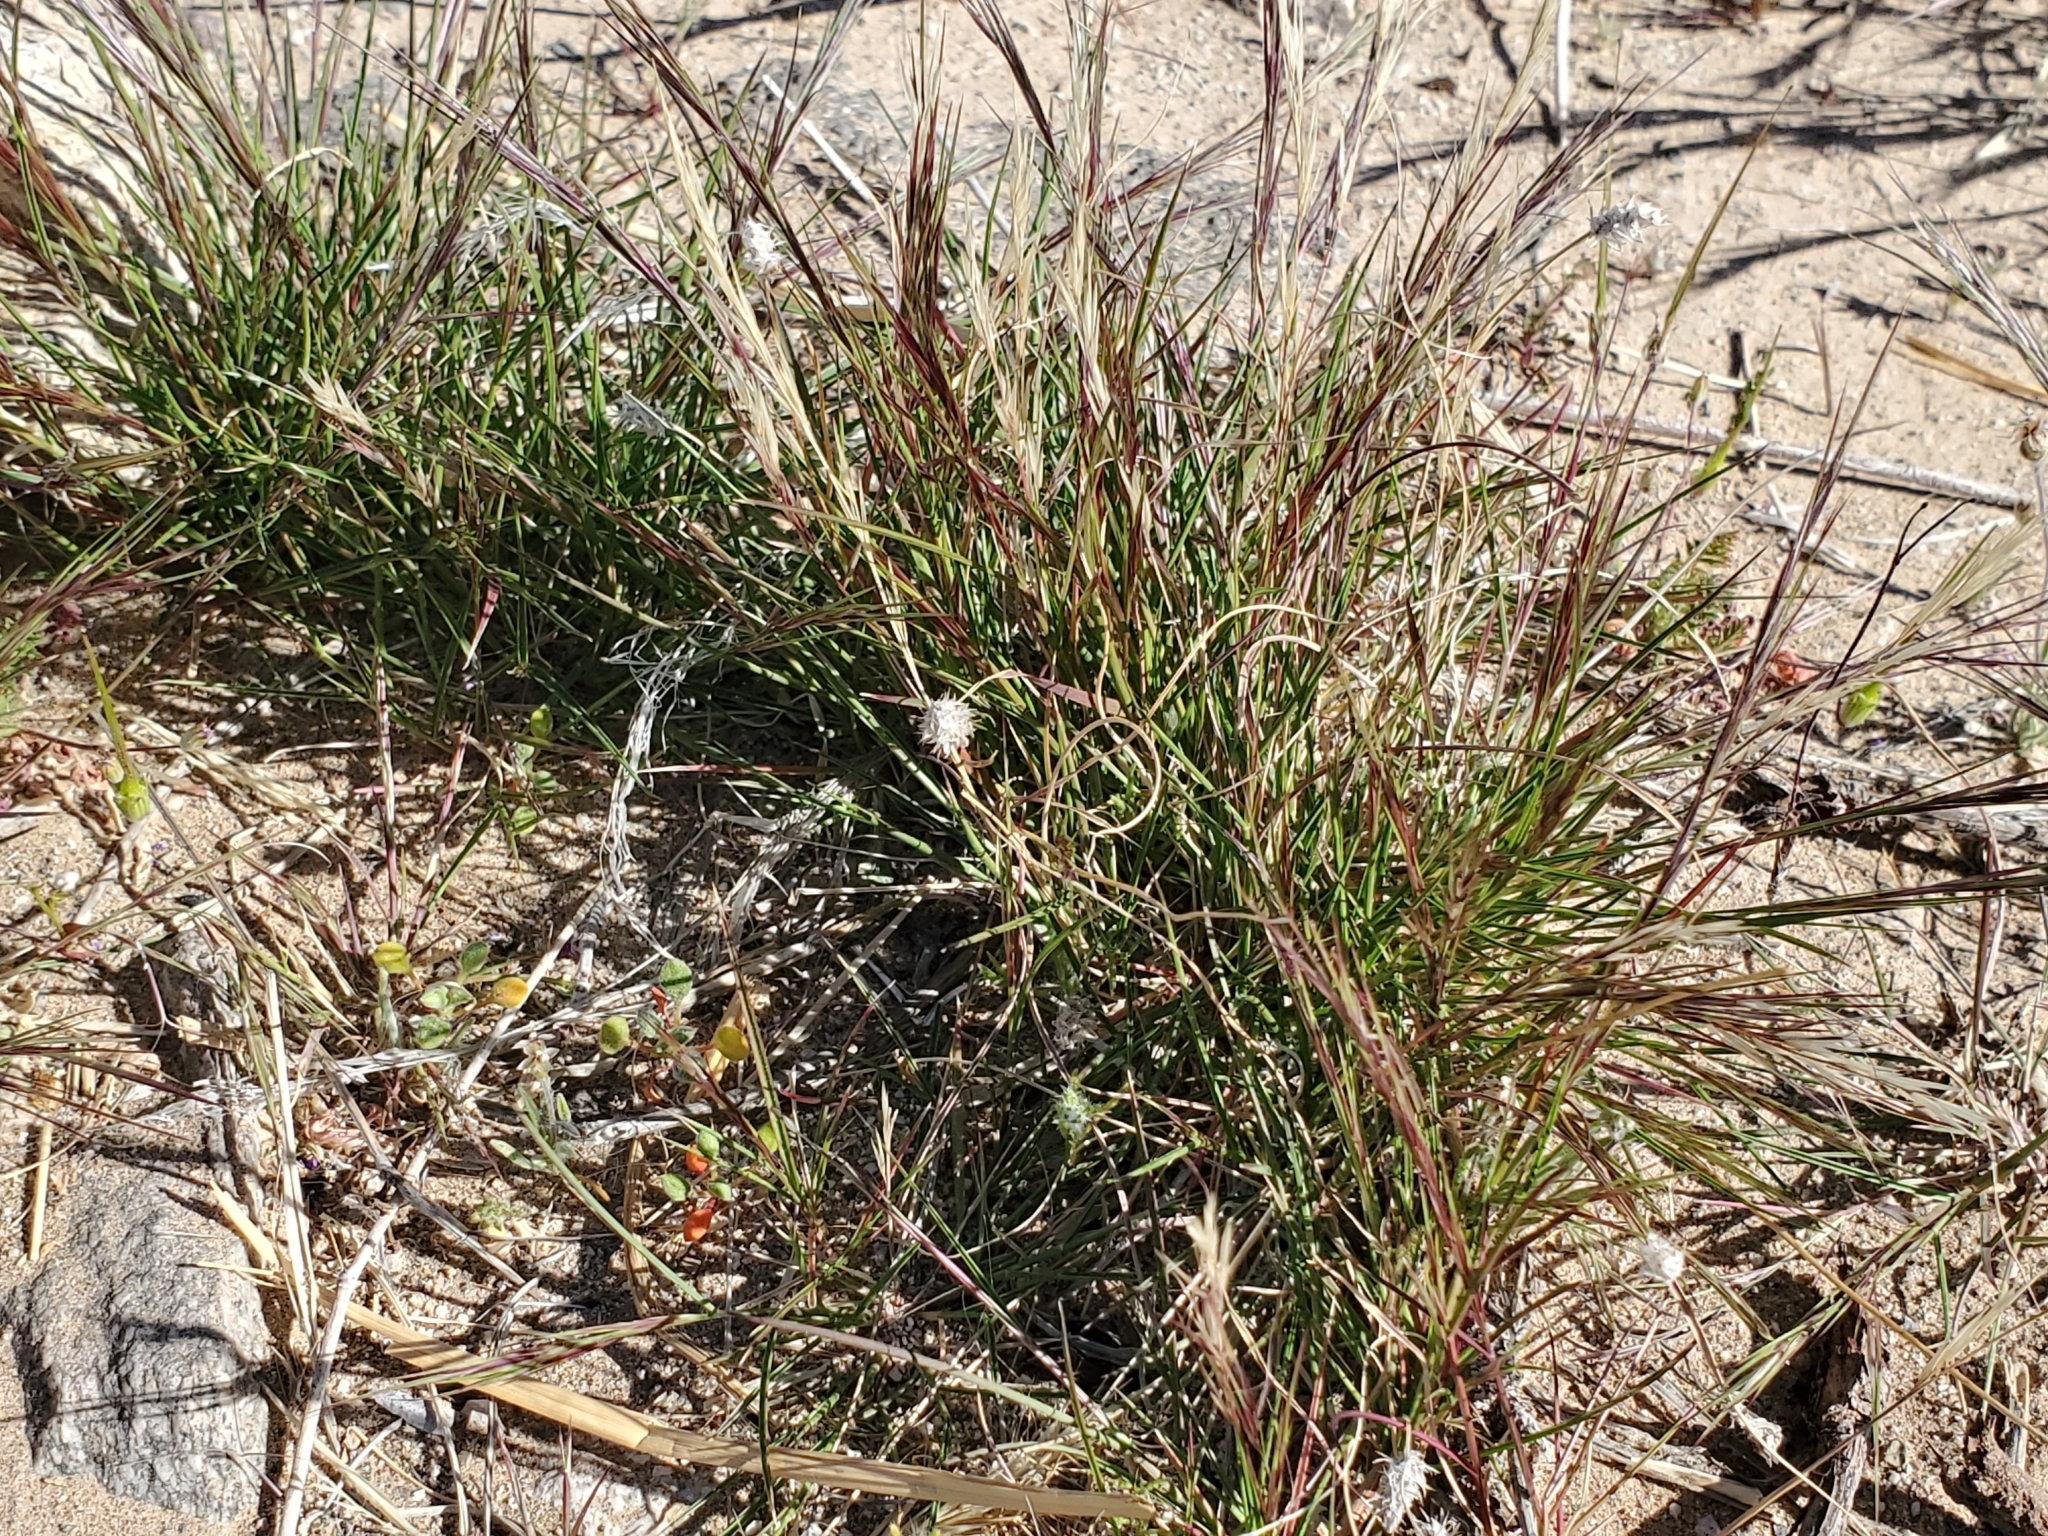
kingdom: Plantae
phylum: Tracheophyta
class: Liliopsida
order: Poales
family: Poaceae
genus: Schismus
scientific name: Schismus barbatus
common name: Kelch-grass
